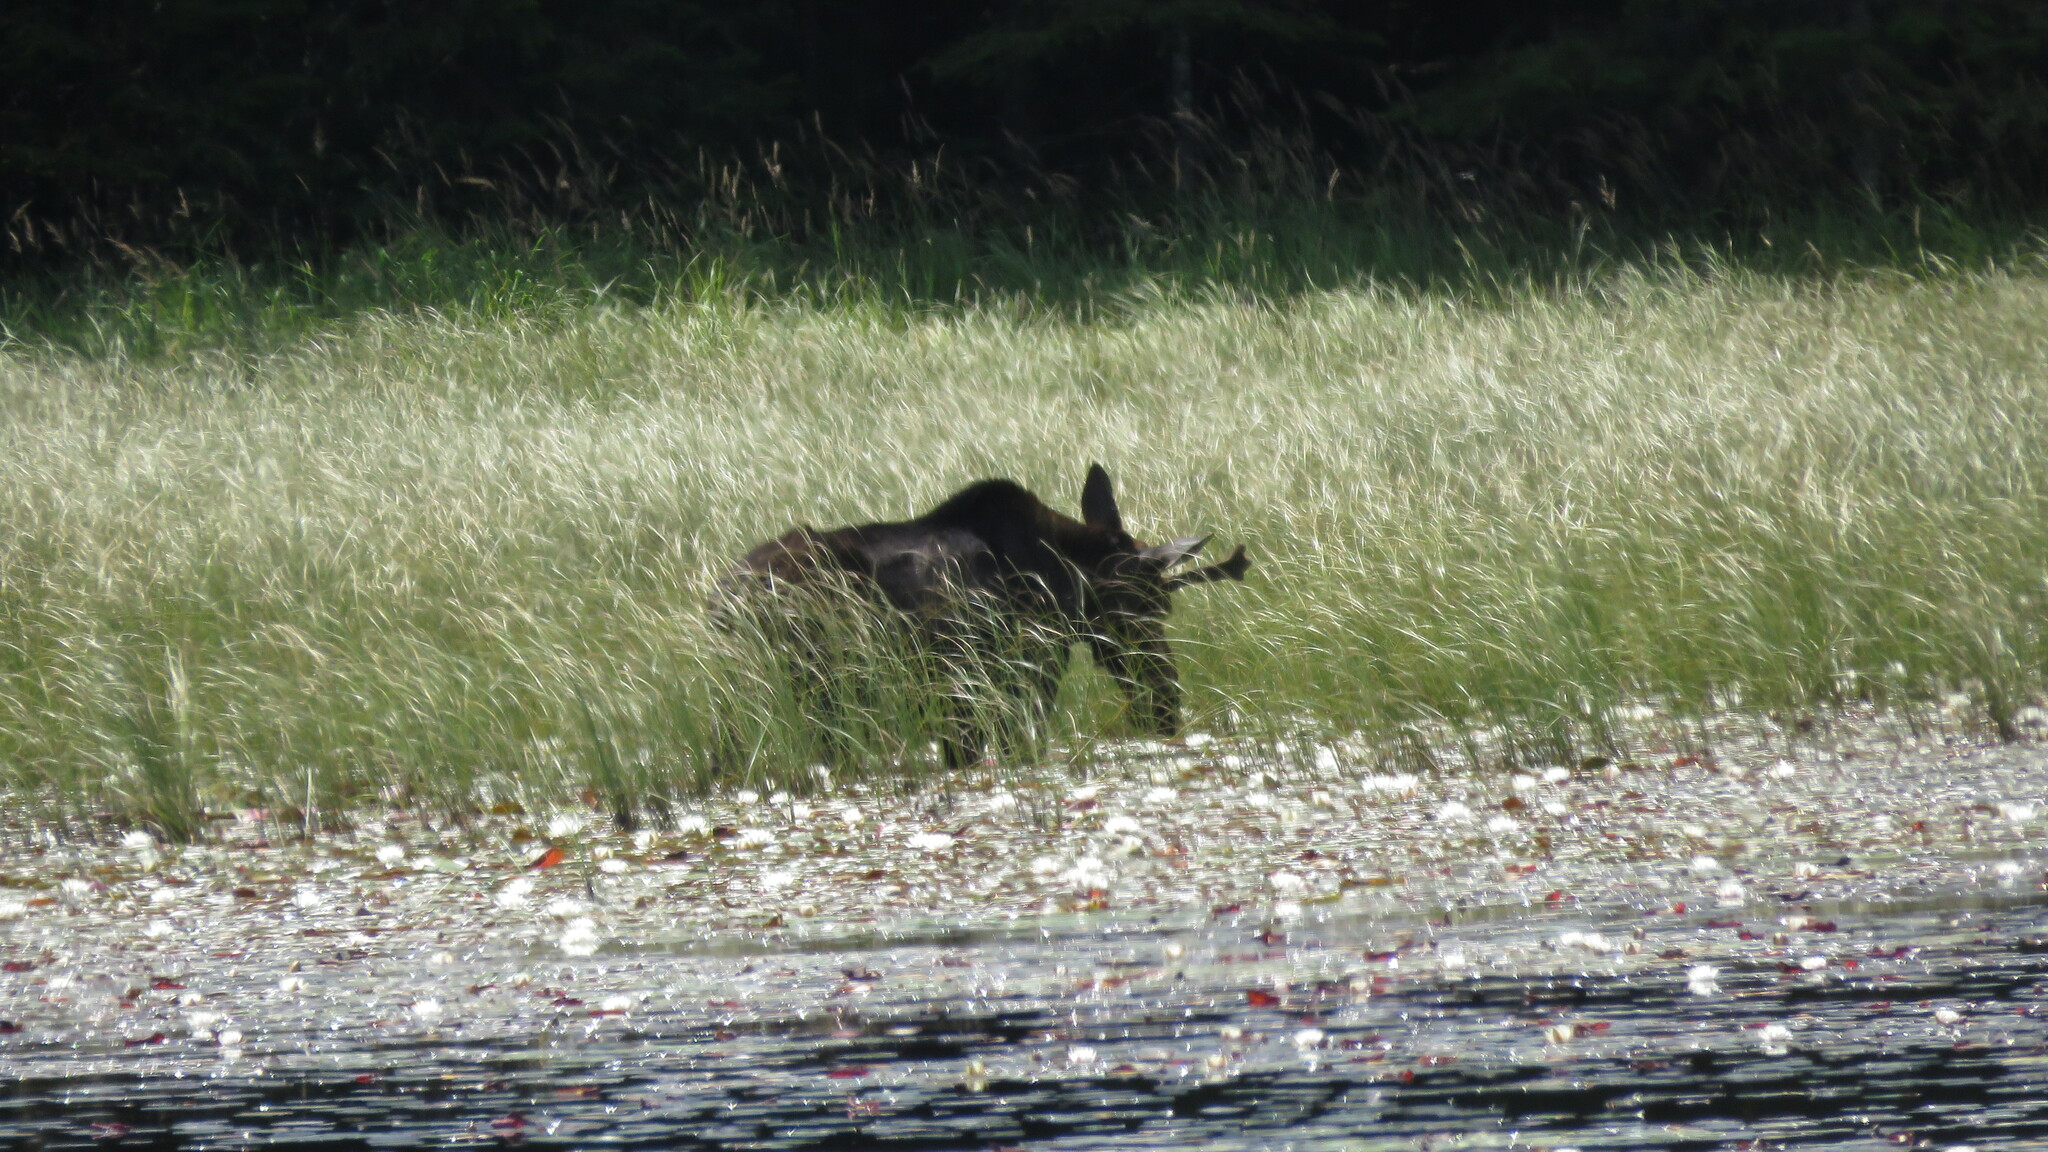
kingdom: Animalia
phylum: Chordata
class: Mammalia
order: Artiodactyla
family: Cervidae
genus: Alces
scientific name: Alces alces
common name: Moose
